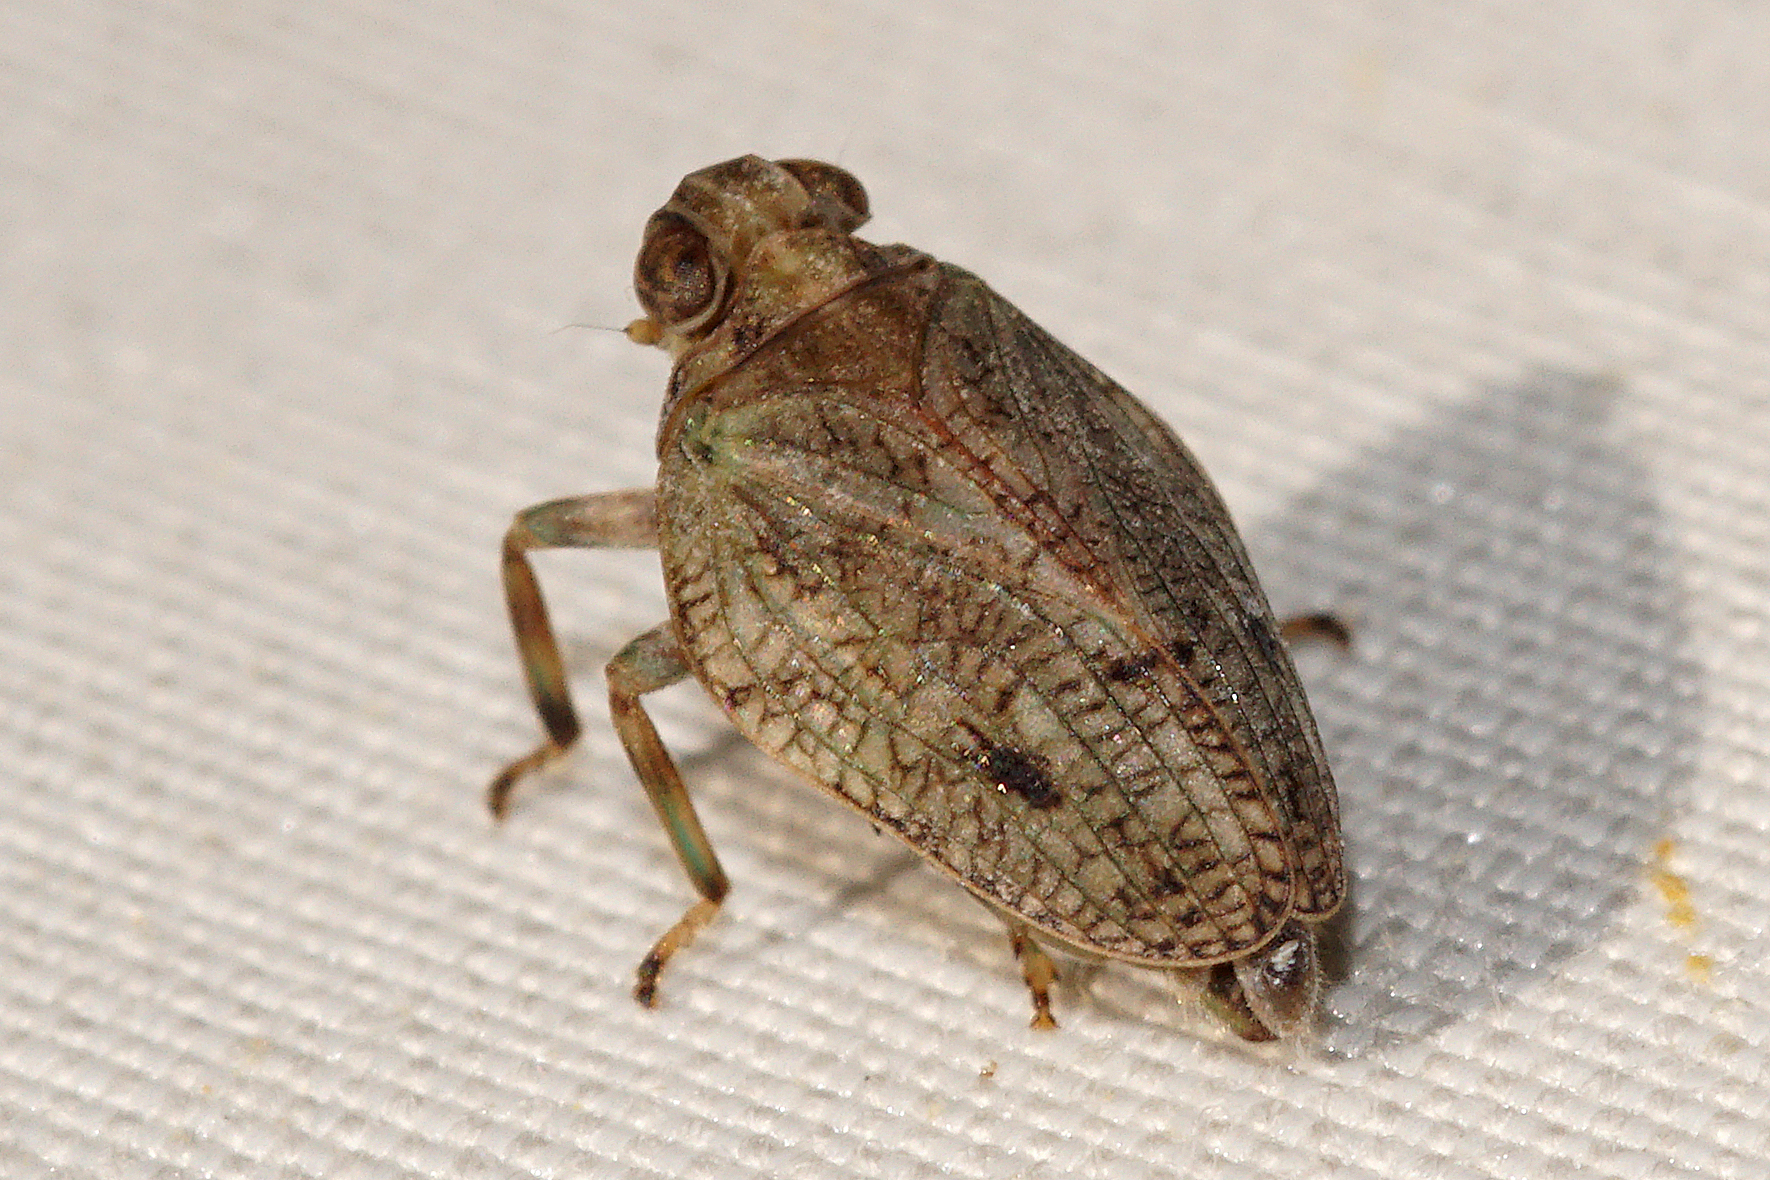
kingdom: Animalia
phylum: Arthropoda
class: Insecta
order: Hemiptera
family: Issidae
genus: Issus
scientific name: Issus coleoptratus
